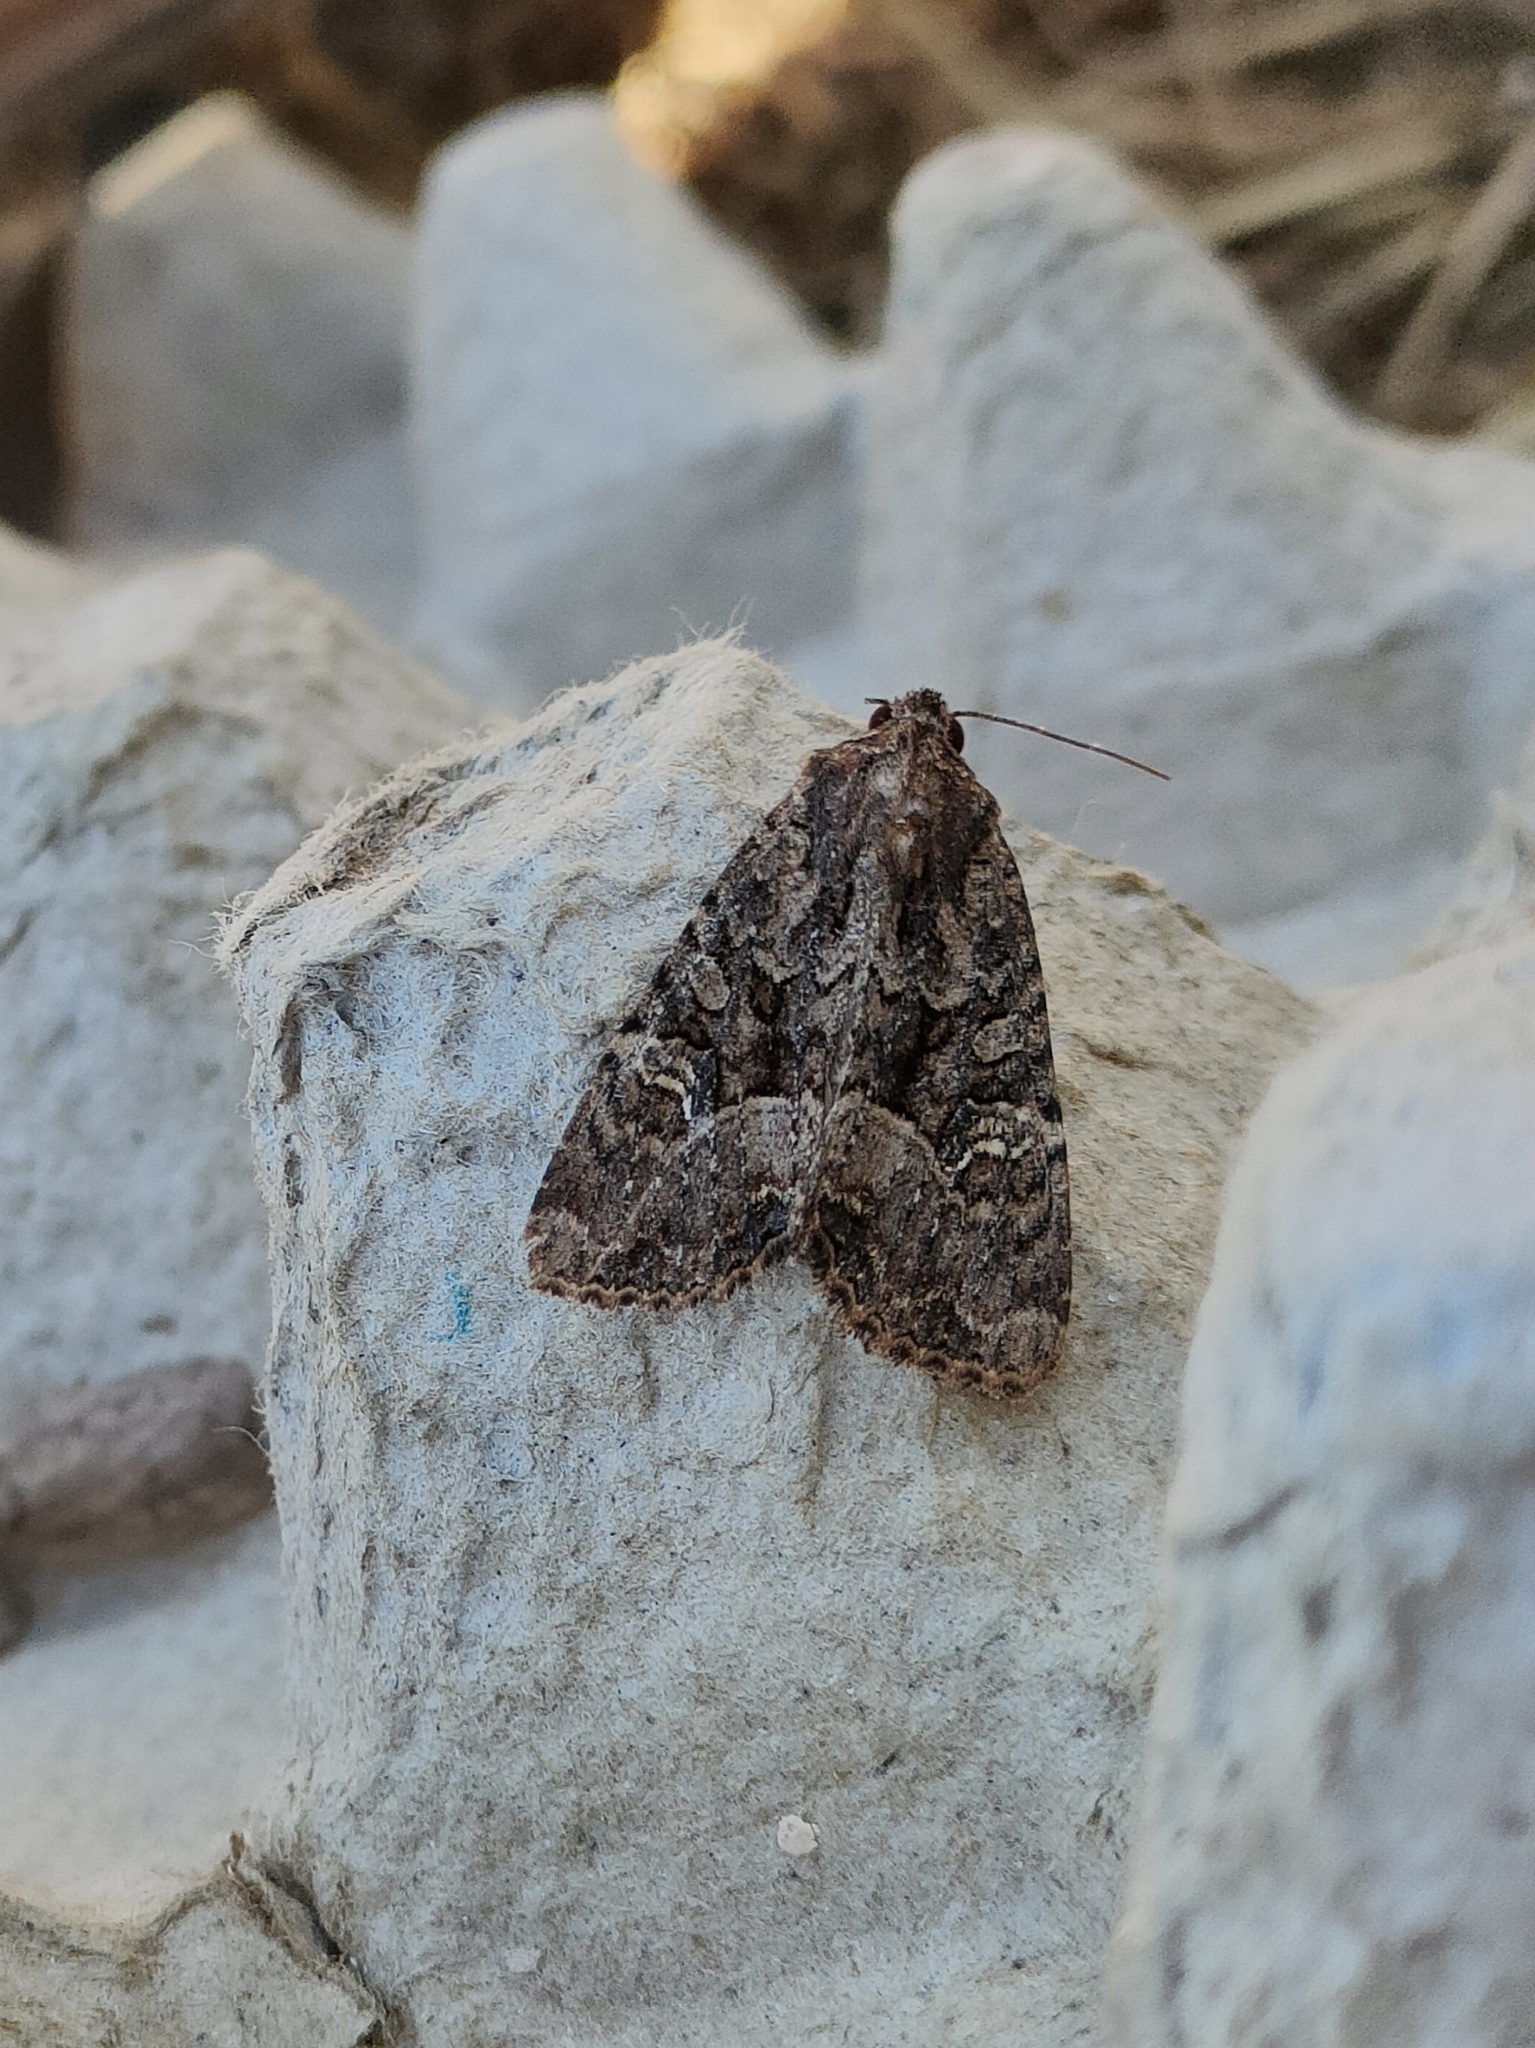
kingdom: Animalia
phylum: Arthropoda
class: Insecta
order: Lepidoptera
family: Noctuidae
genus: Mesapamea
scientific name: Mesapamea
